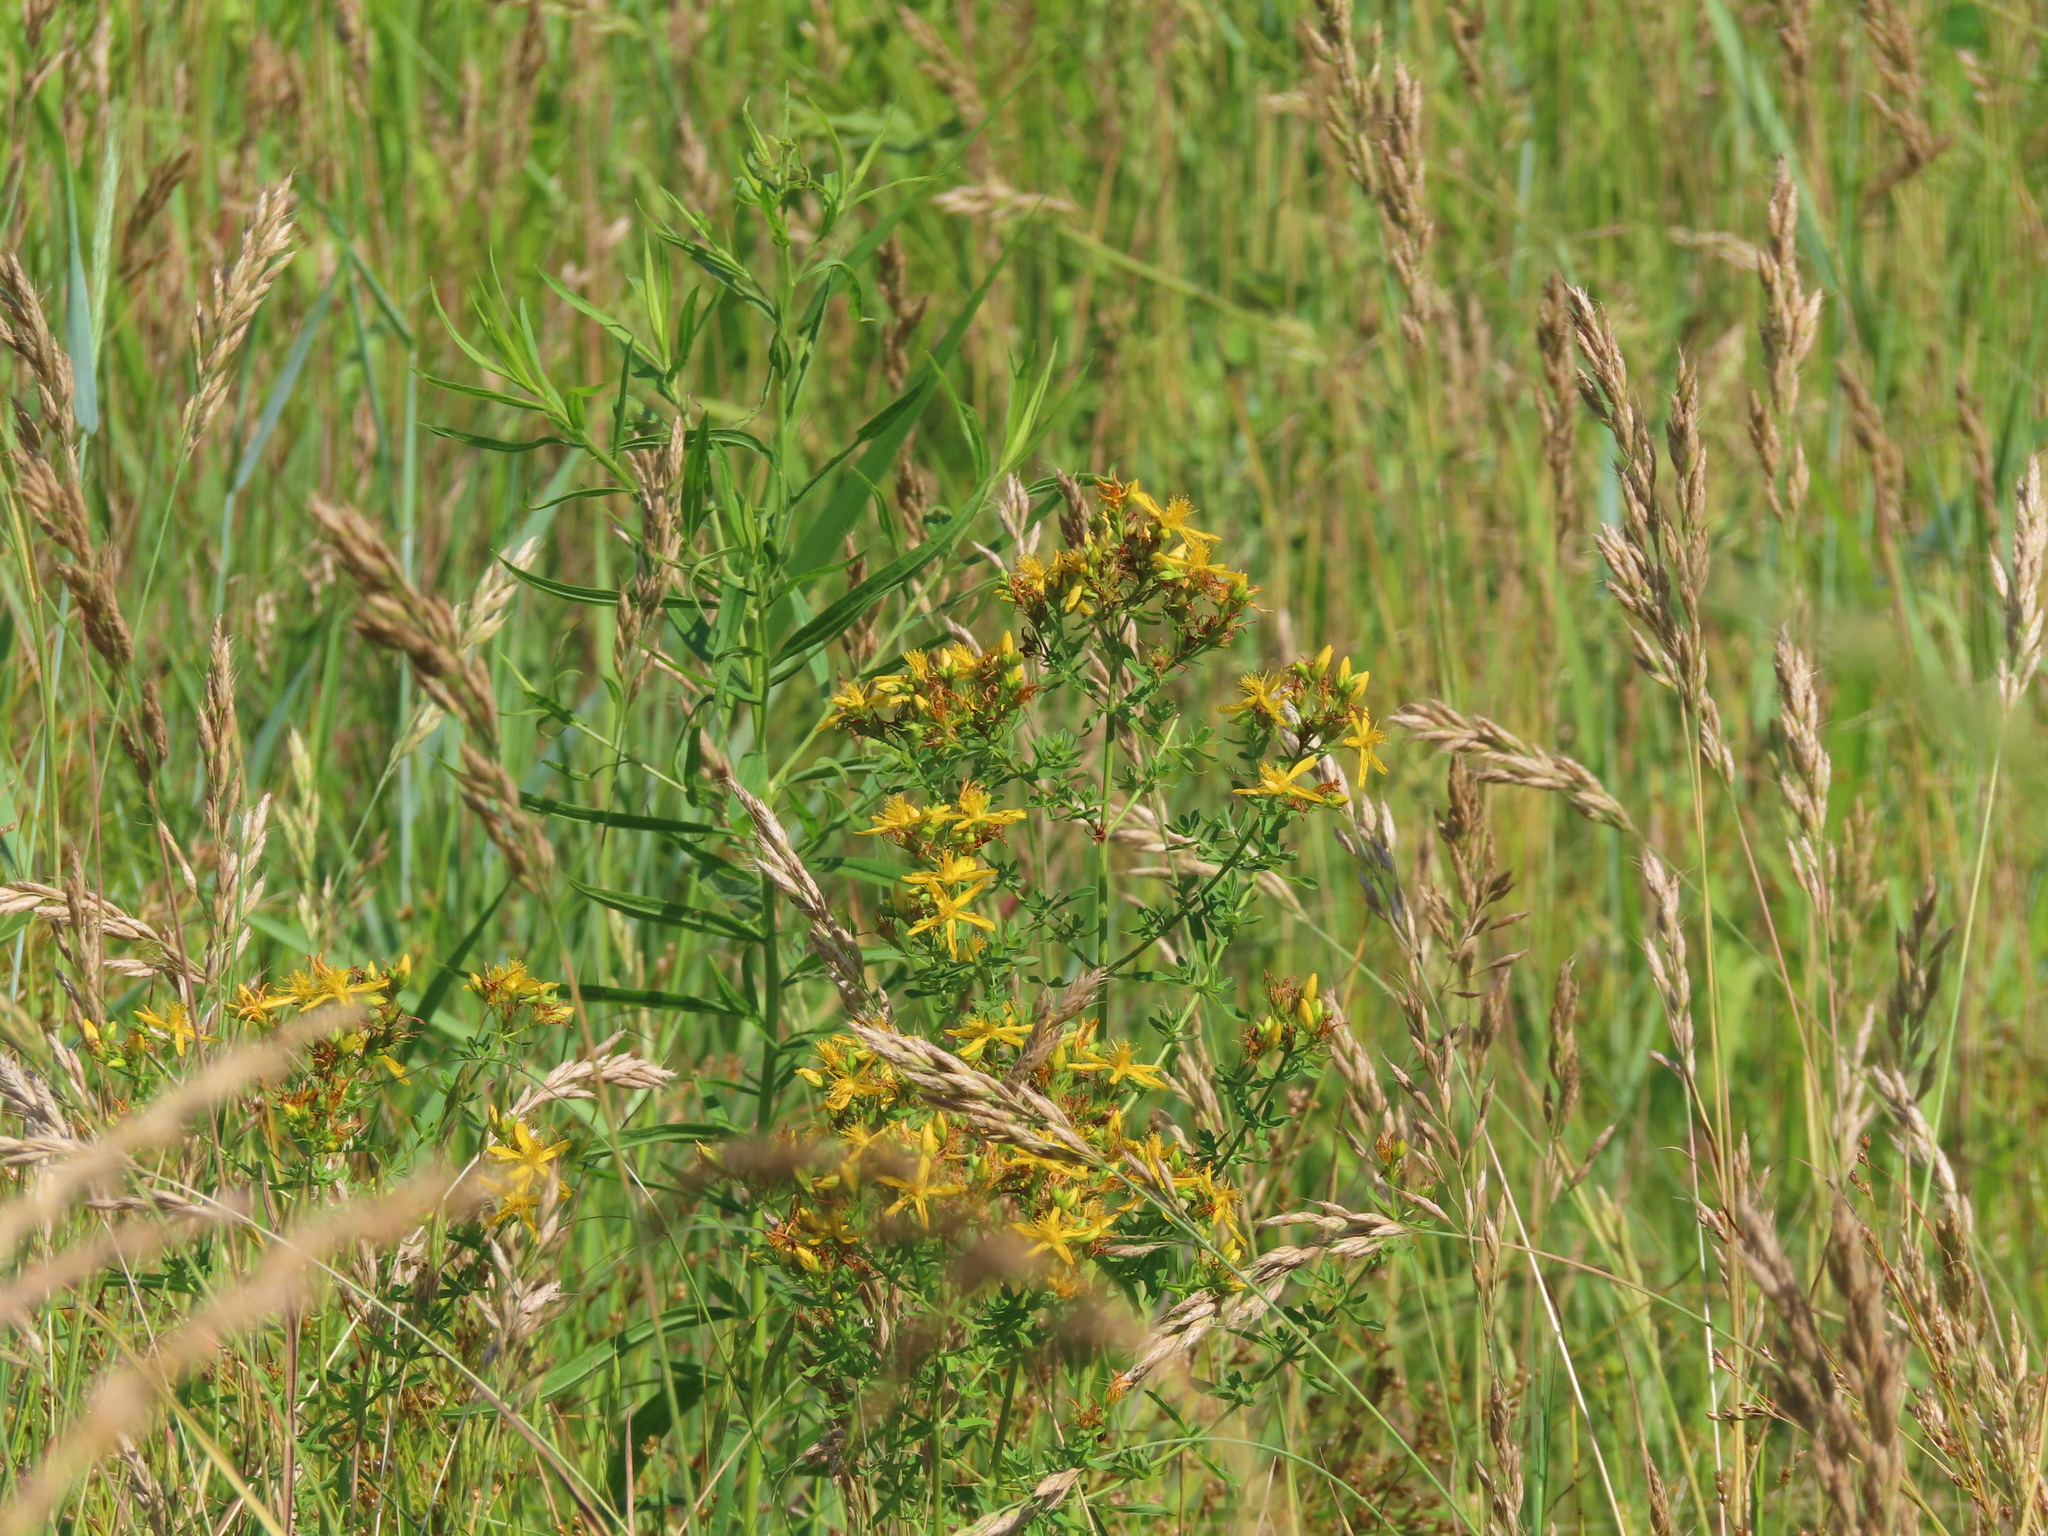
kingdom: Plantae
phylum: Tracheophyta
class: Magnoliopsida
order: Malpighiales
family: Hypericaceae
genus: Hypericum
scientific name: Hypericum perforatum
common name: Common st. johnswort
